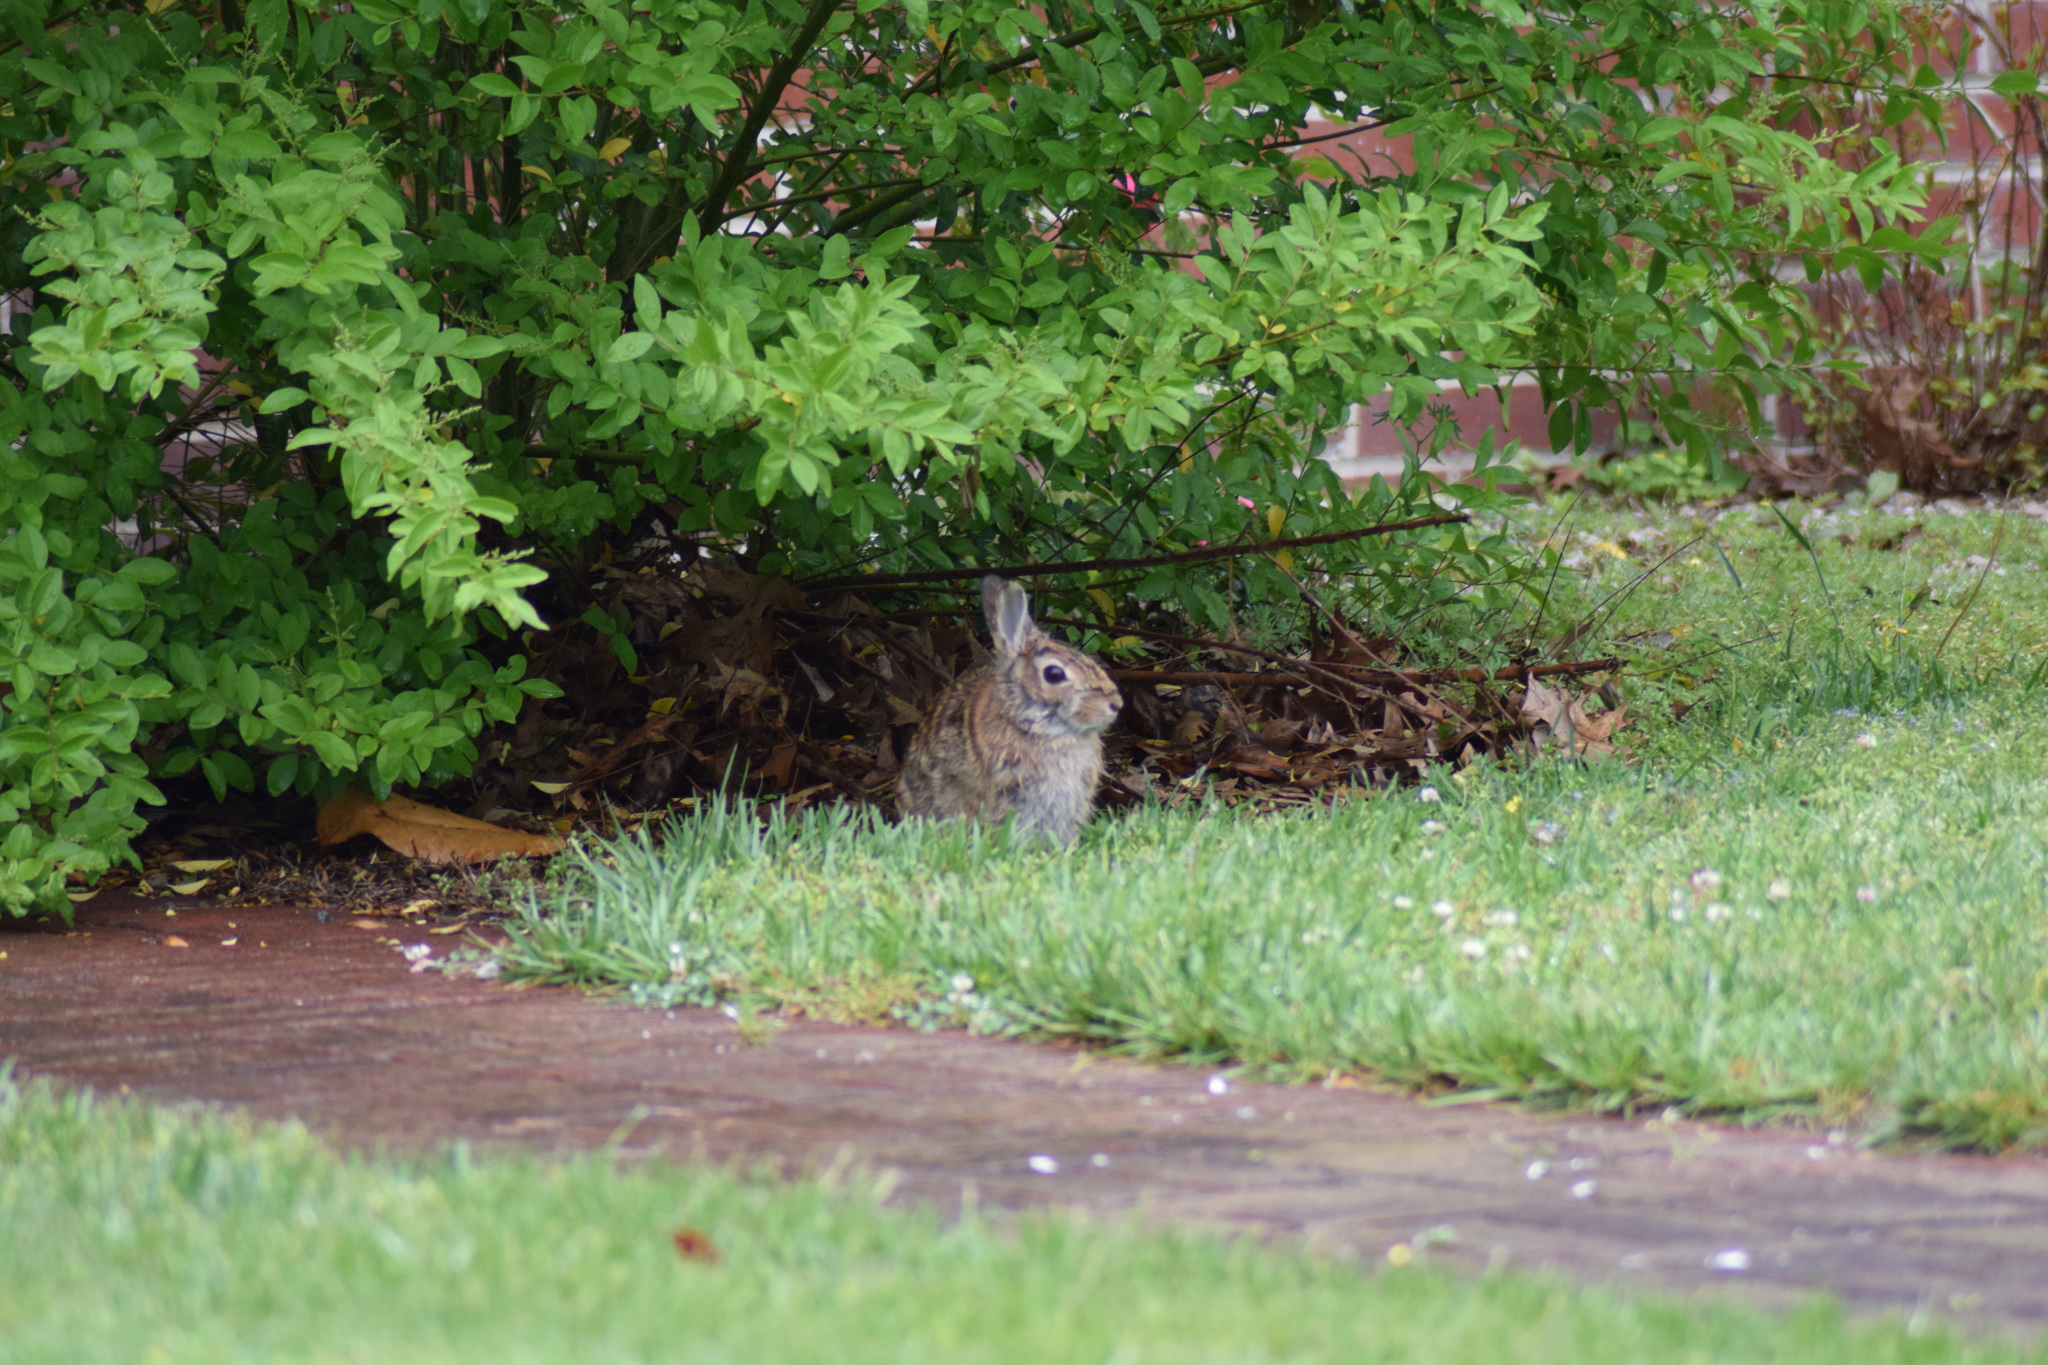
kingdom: Animalia
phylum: Chordata
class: Mammalia
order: Lagomorpha
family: Leporidae
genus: Sylvilagus
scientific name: Sylvilagus floridanus
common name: Eastern cottontail
